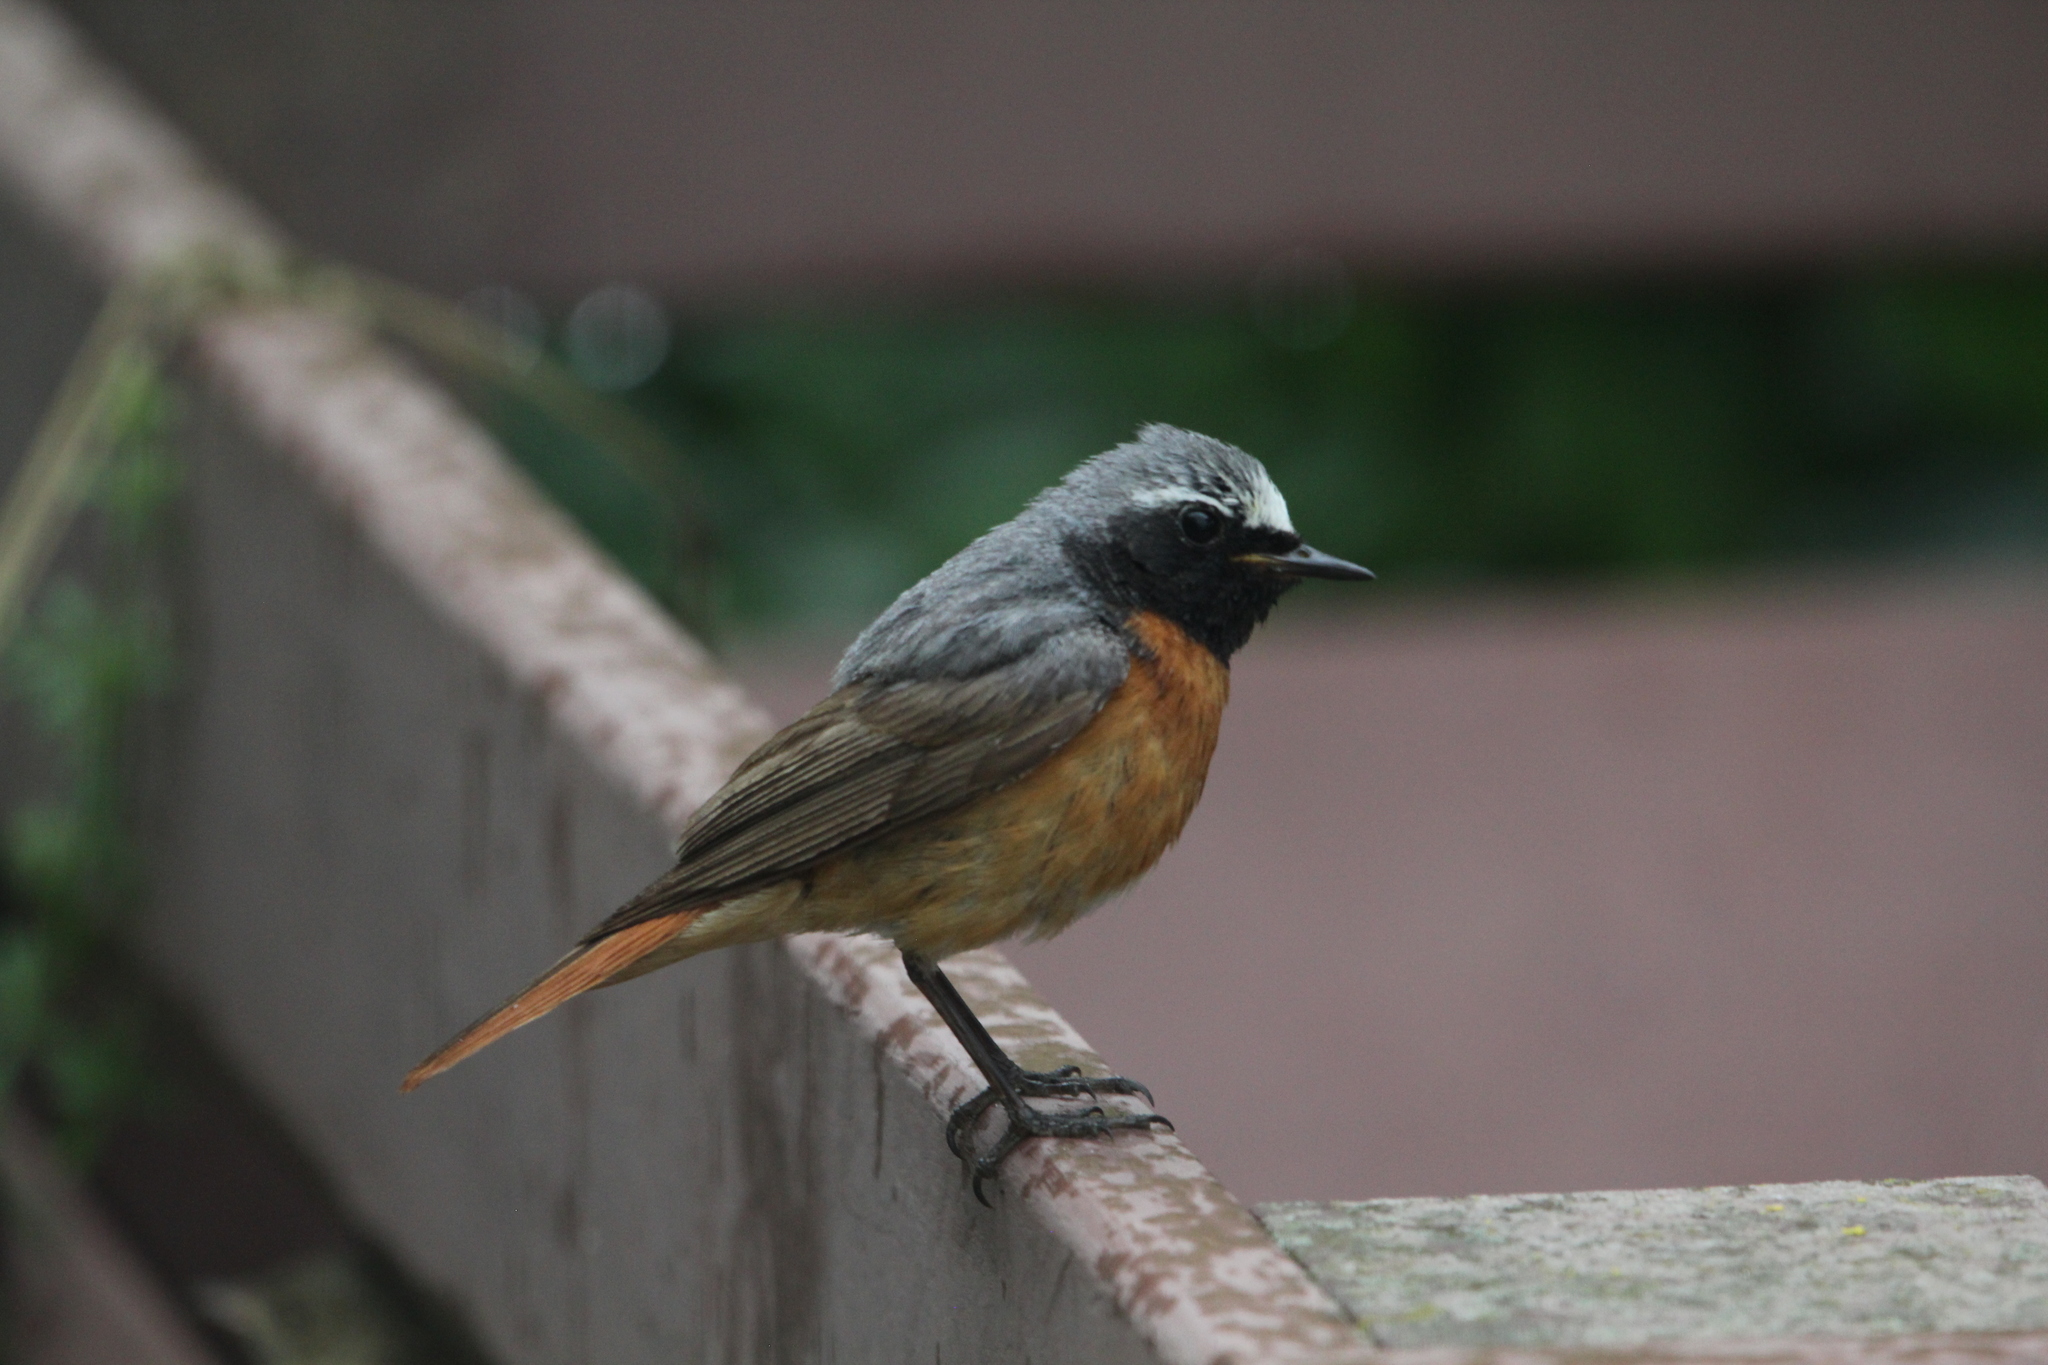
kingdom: Animalia
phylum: Chordata
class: Aves
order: Passeriformes
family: Muscicapidae
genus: Phoenicurus
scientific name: Phoenicurus phoenicurus
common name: Common redstart
